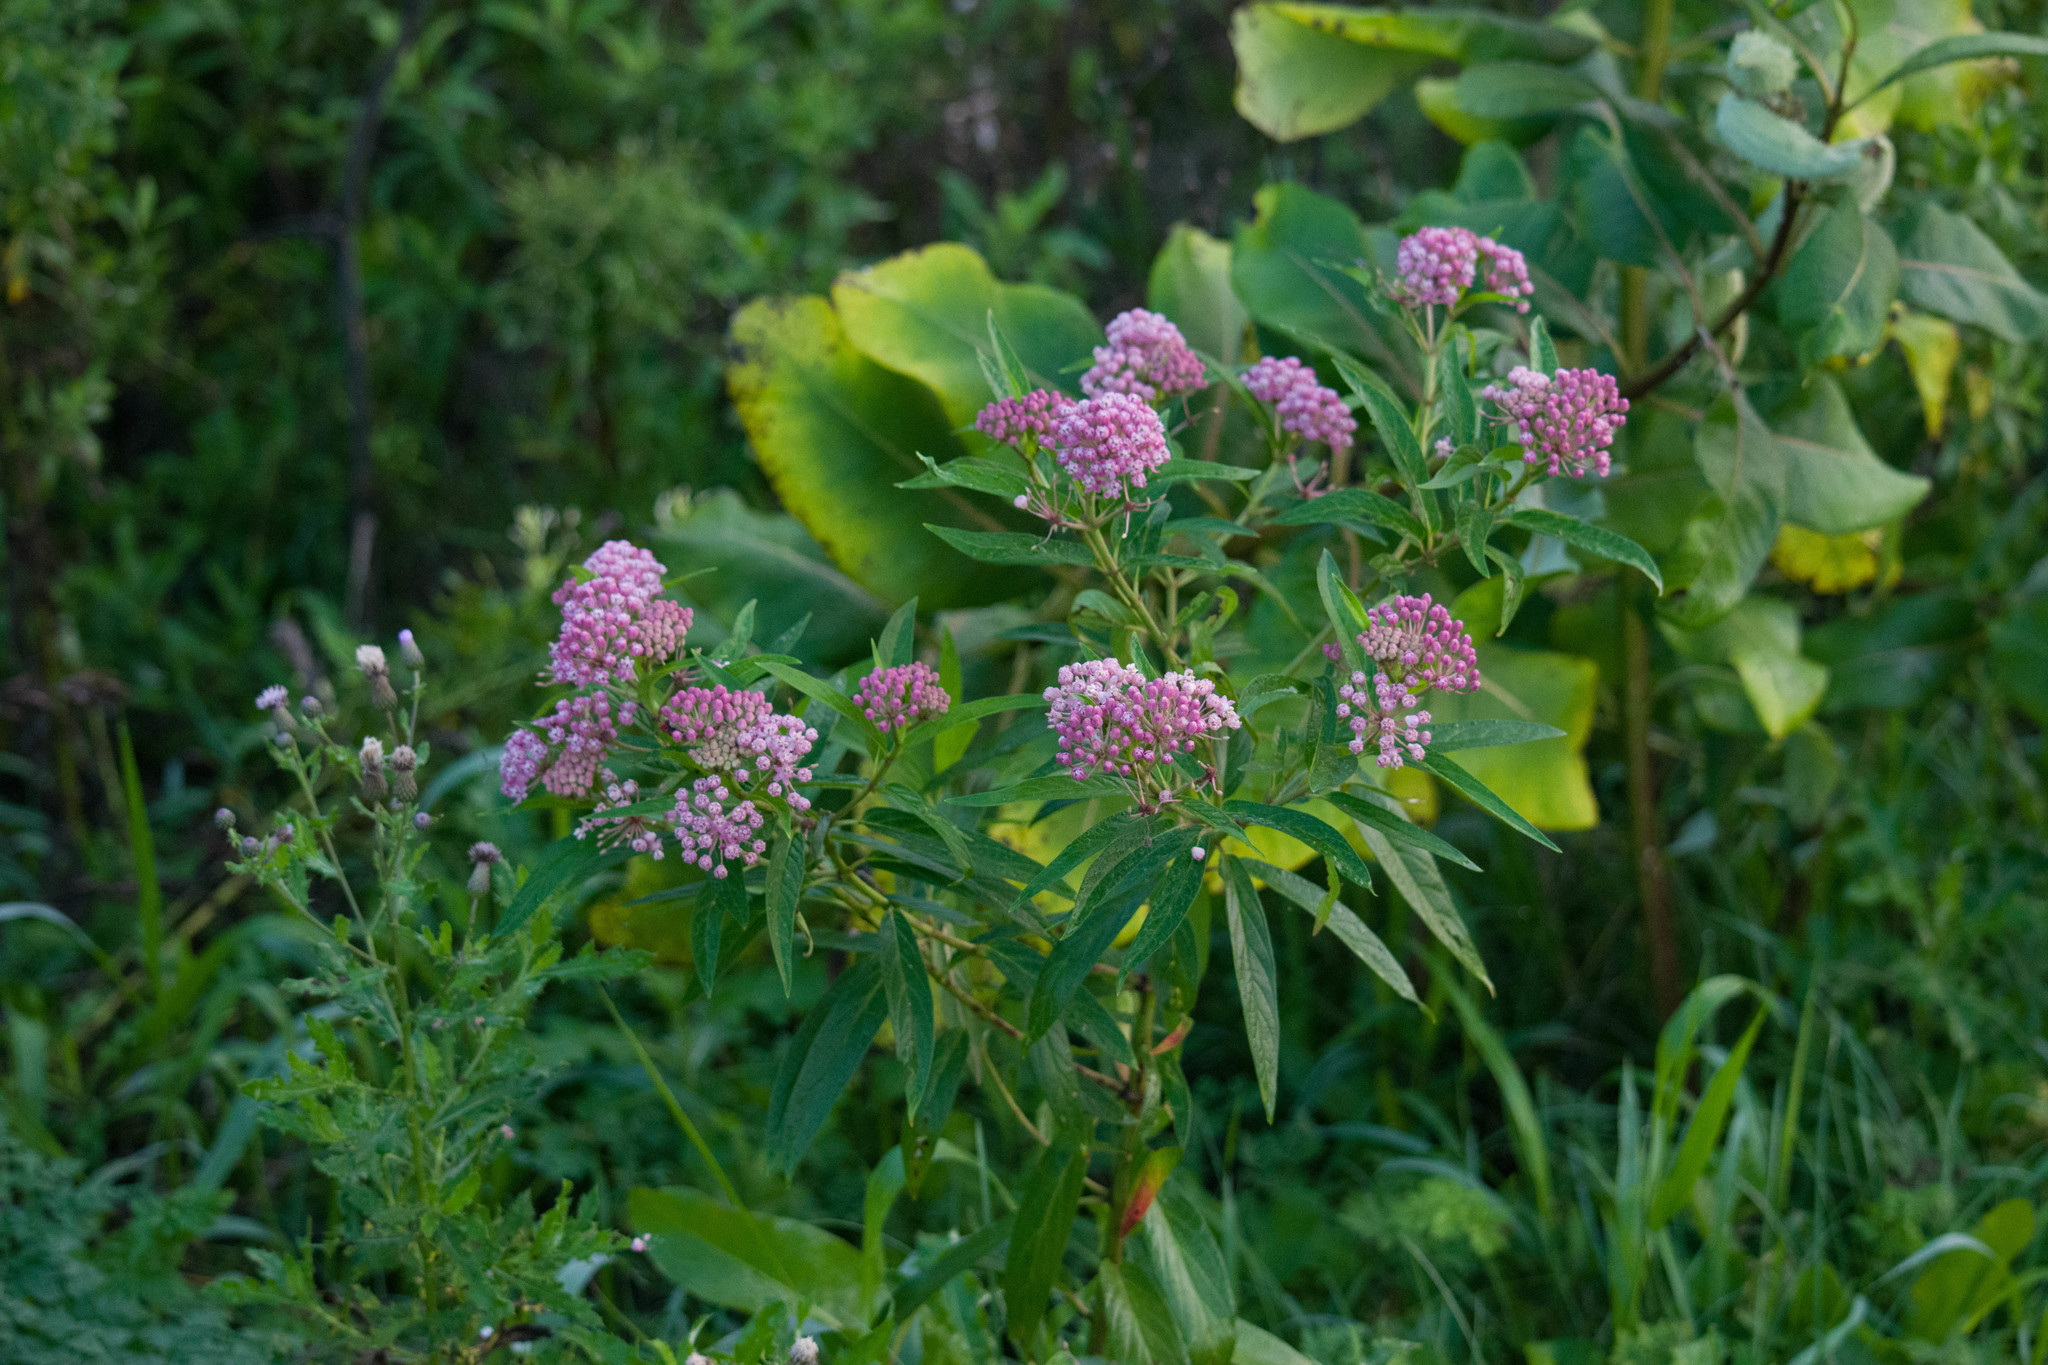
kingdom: Plantae
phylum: Tracheophyta
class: Magnoliopsida
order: Gentianales
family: Apocynaceae
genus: Asclepias
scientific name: Asclepias incarnata
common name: Swamp milkweed
